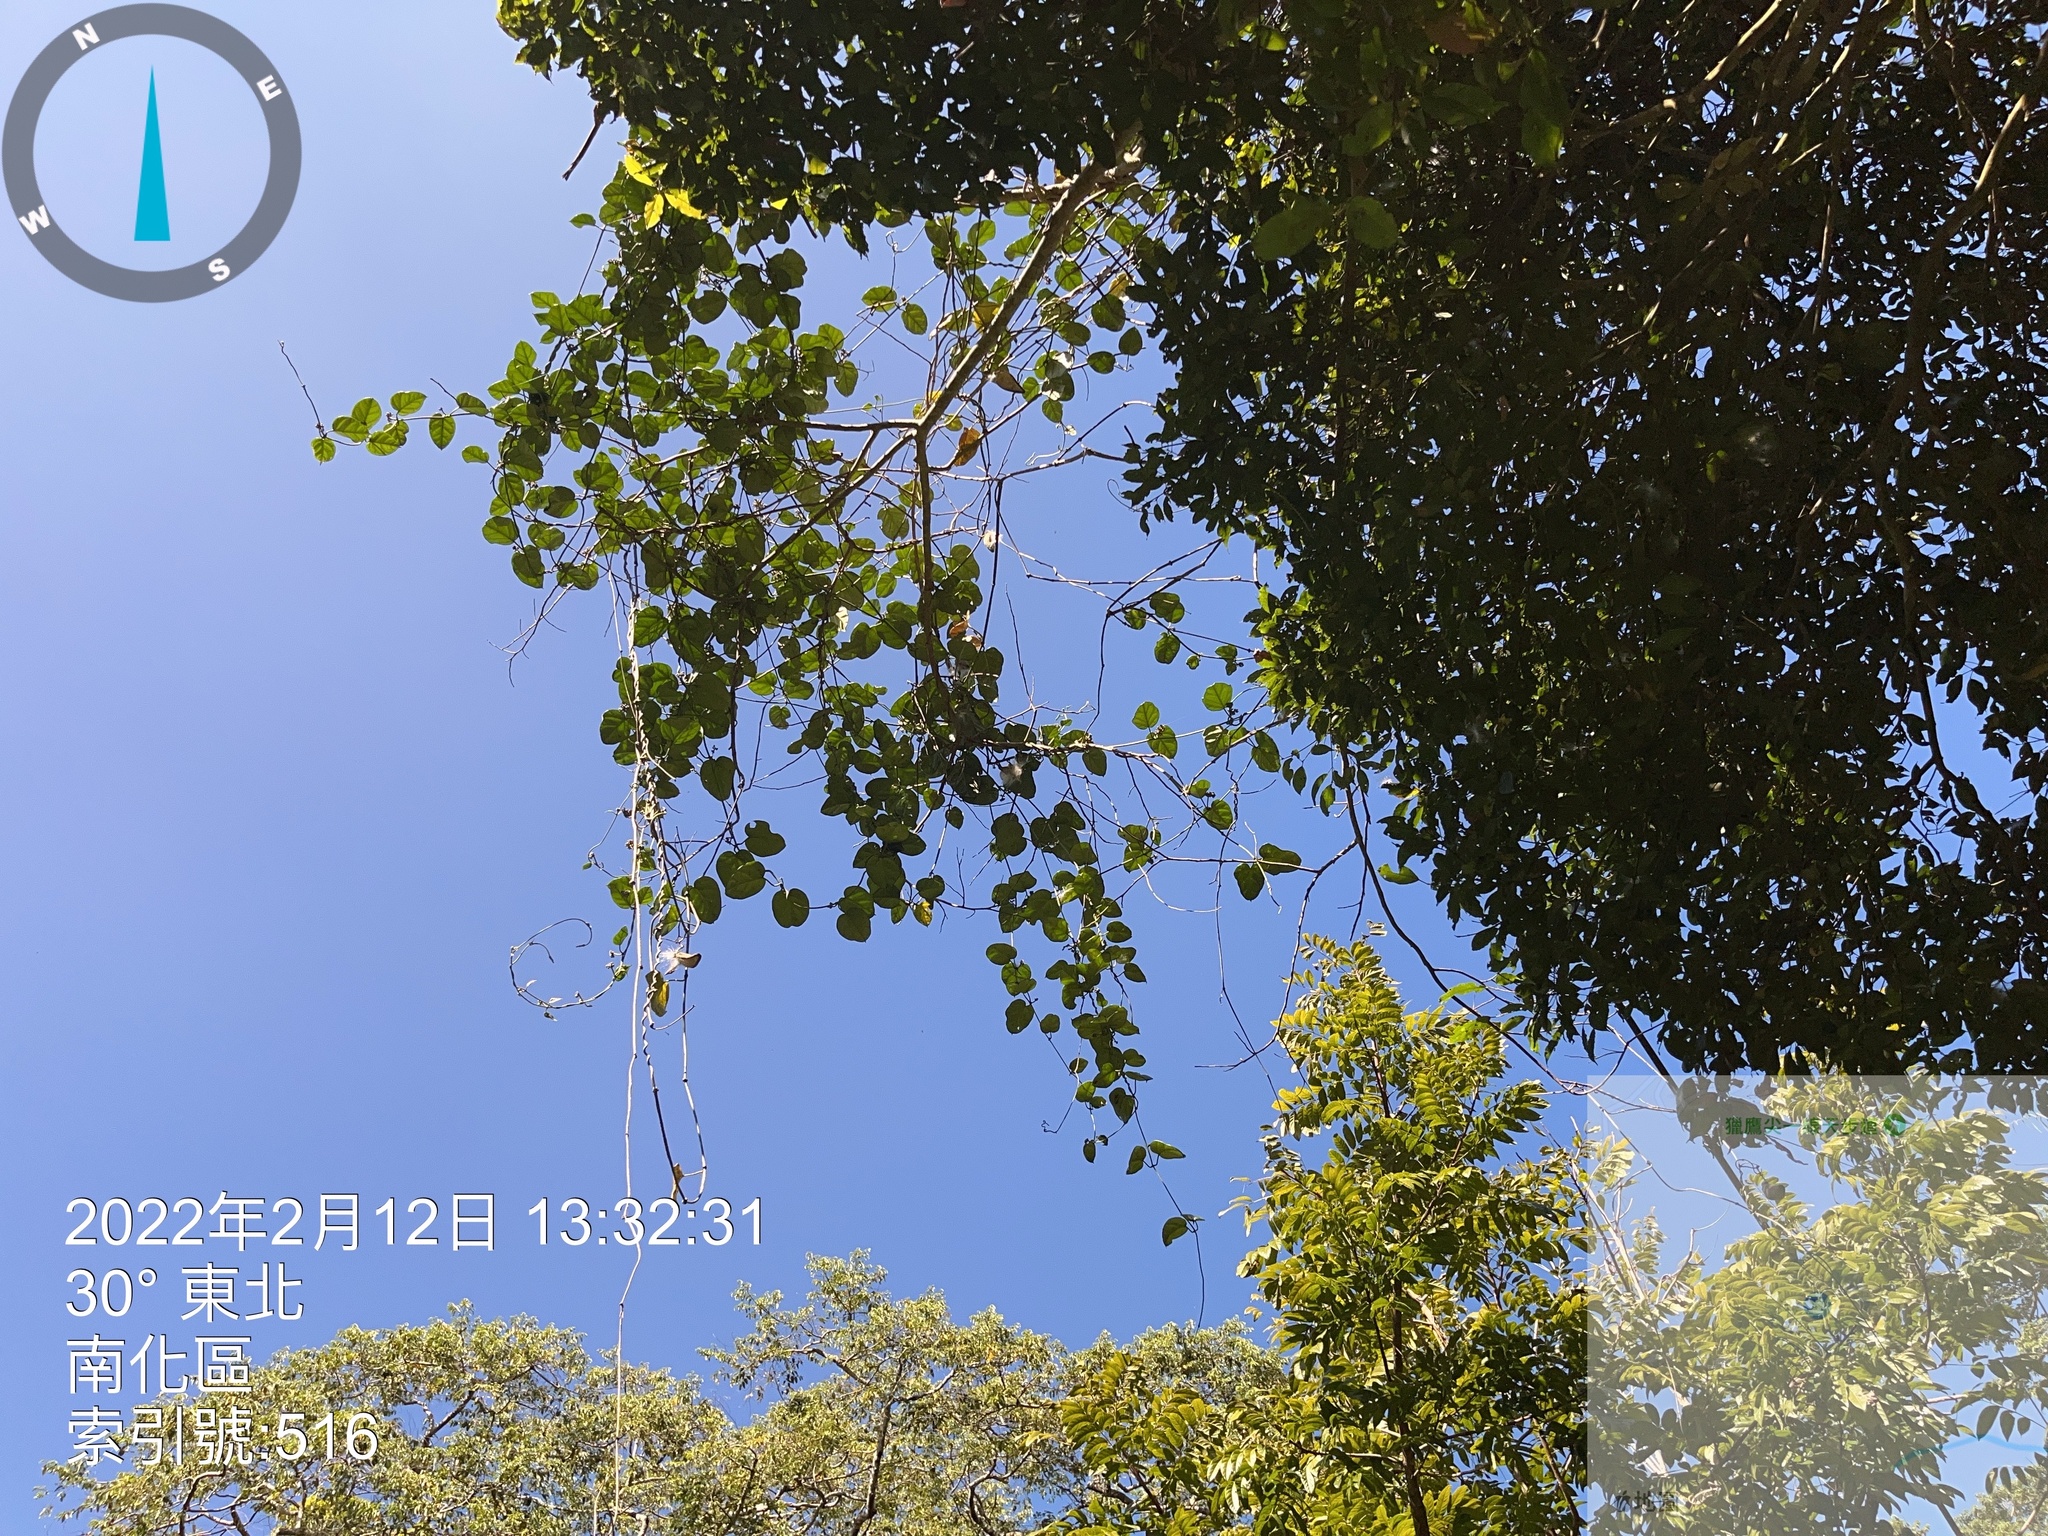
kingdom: Plantae
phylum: Tracheophyta
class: Magnoliopsida
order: Gentianales
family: Apocynaceae
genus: Stephanotis
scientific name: Stephanotis volubilis
